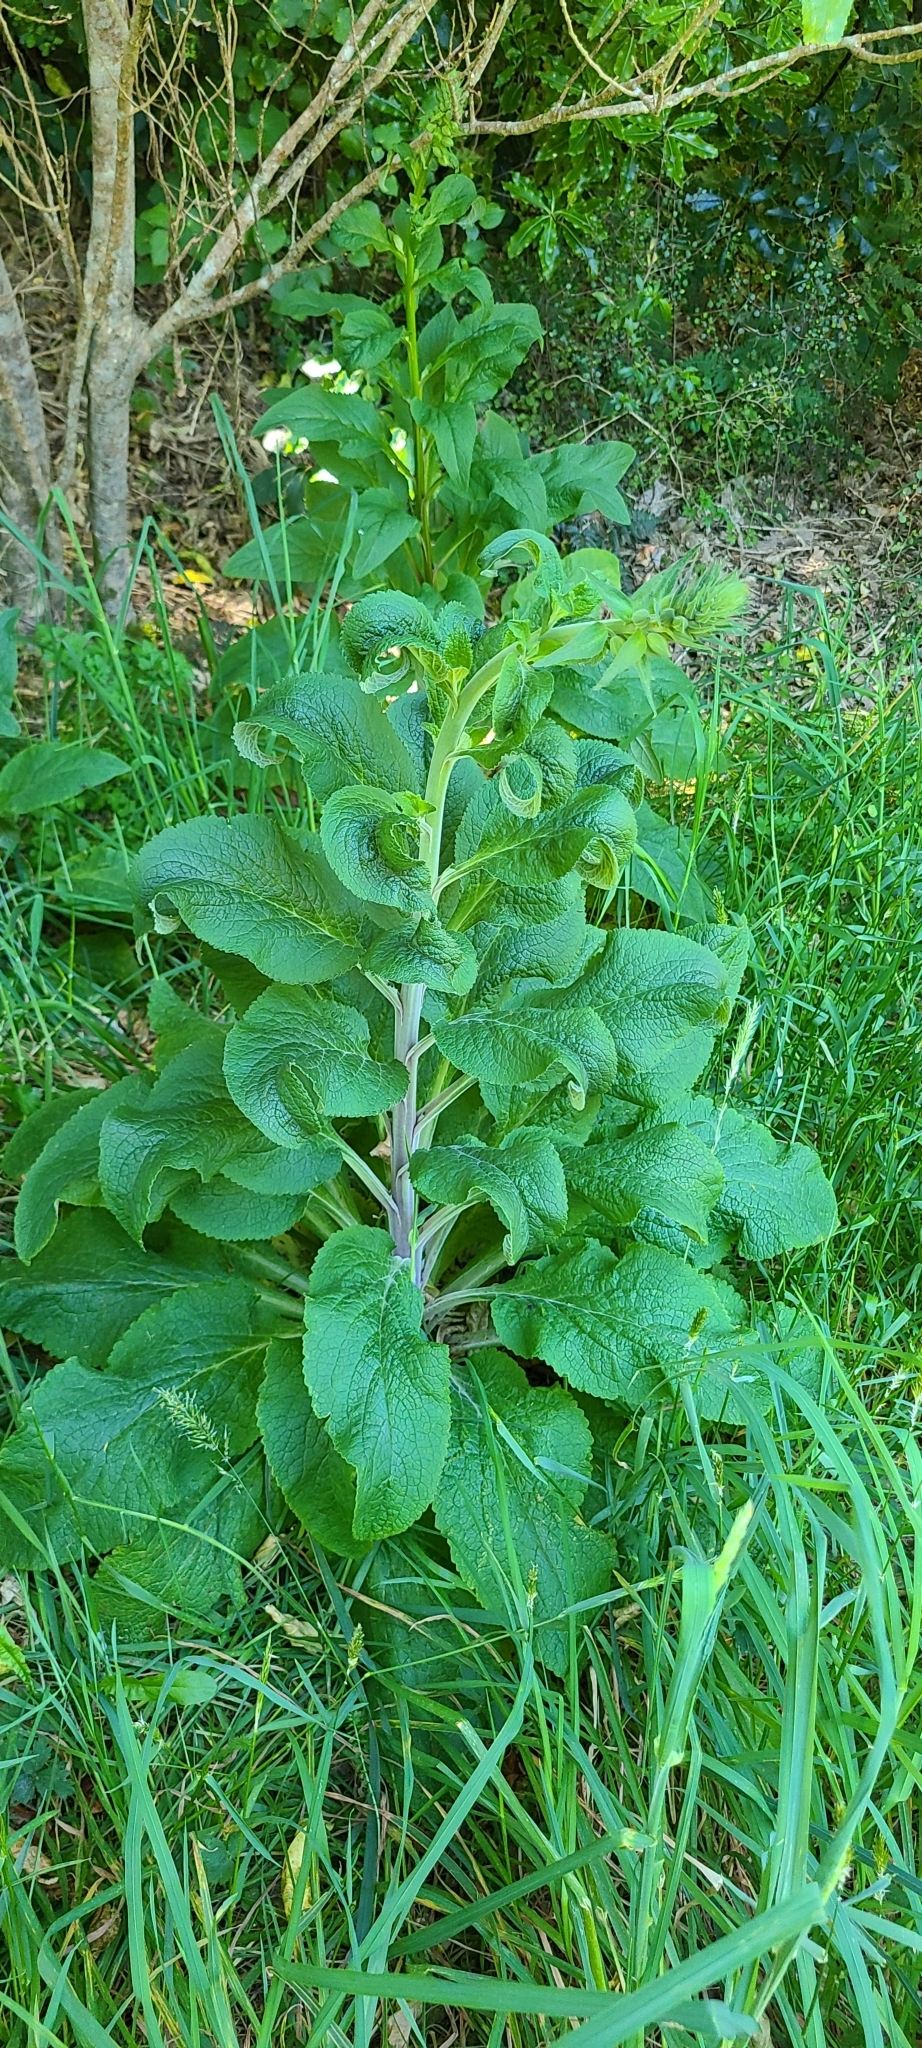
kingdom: Plantae
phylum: Tracheophyta
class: Magnoliopsida
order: Lamiales
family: Plantaginaceae
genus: Digitalis
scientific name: Digitalis purpurea
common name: Foxglove
